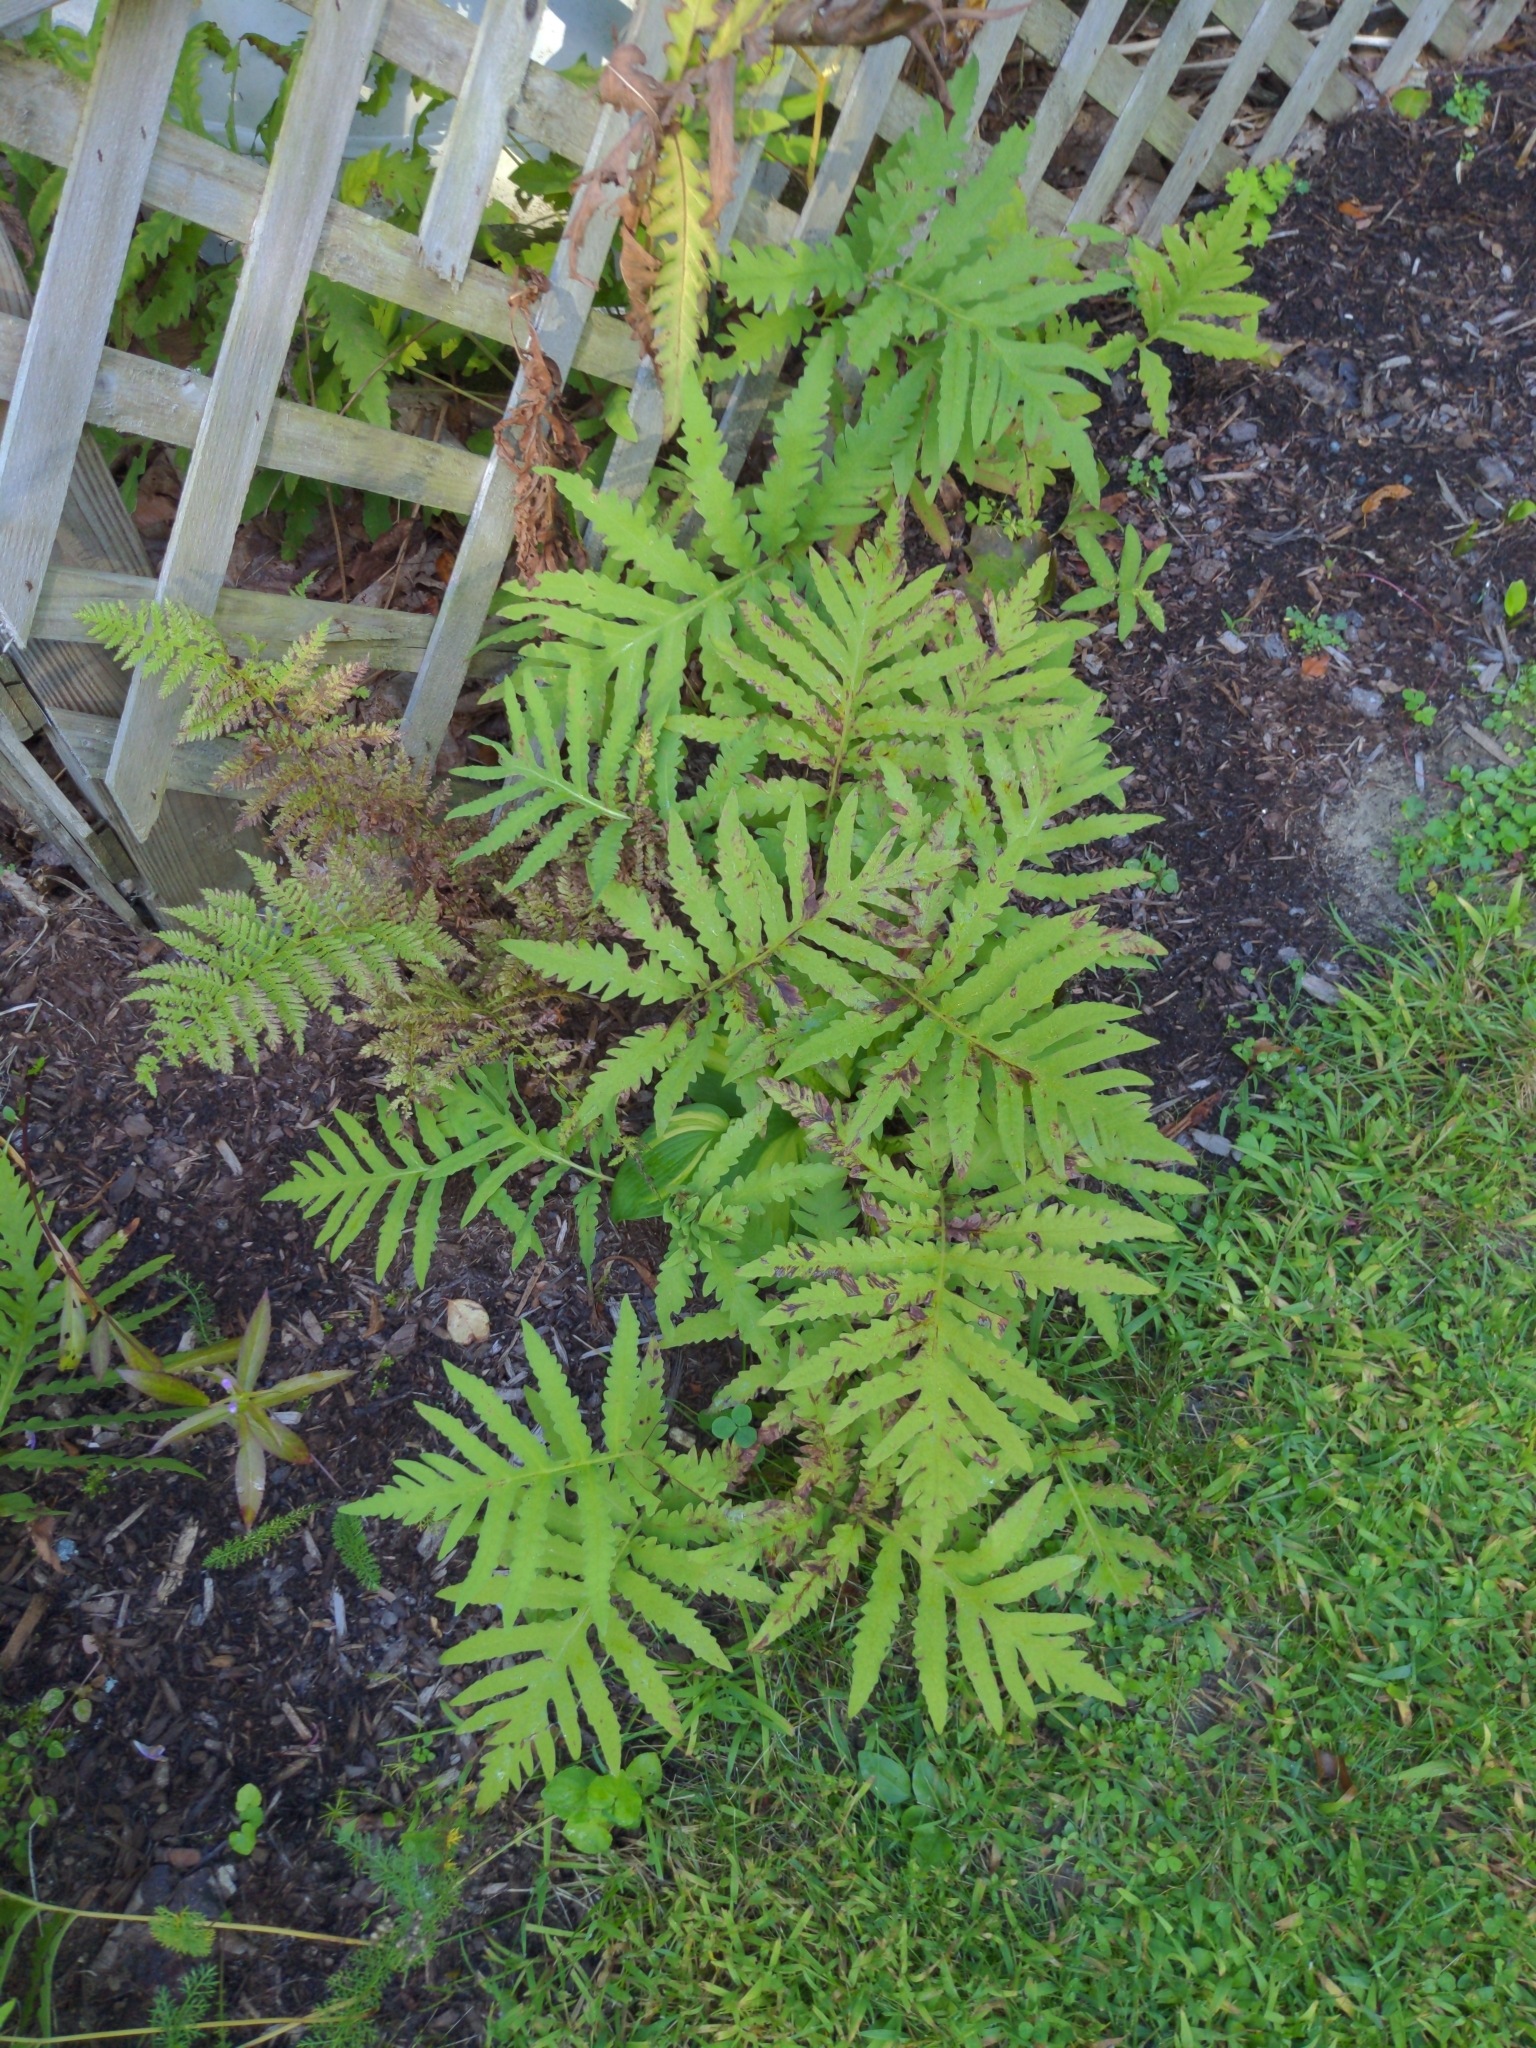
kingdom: Plantae
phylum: Tracheophyta
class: Polypodiopsida
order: Polypodiales
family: Onocleaceae
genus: Onoclea
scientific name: Onoclea sensibilis
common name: Sensitive fern
